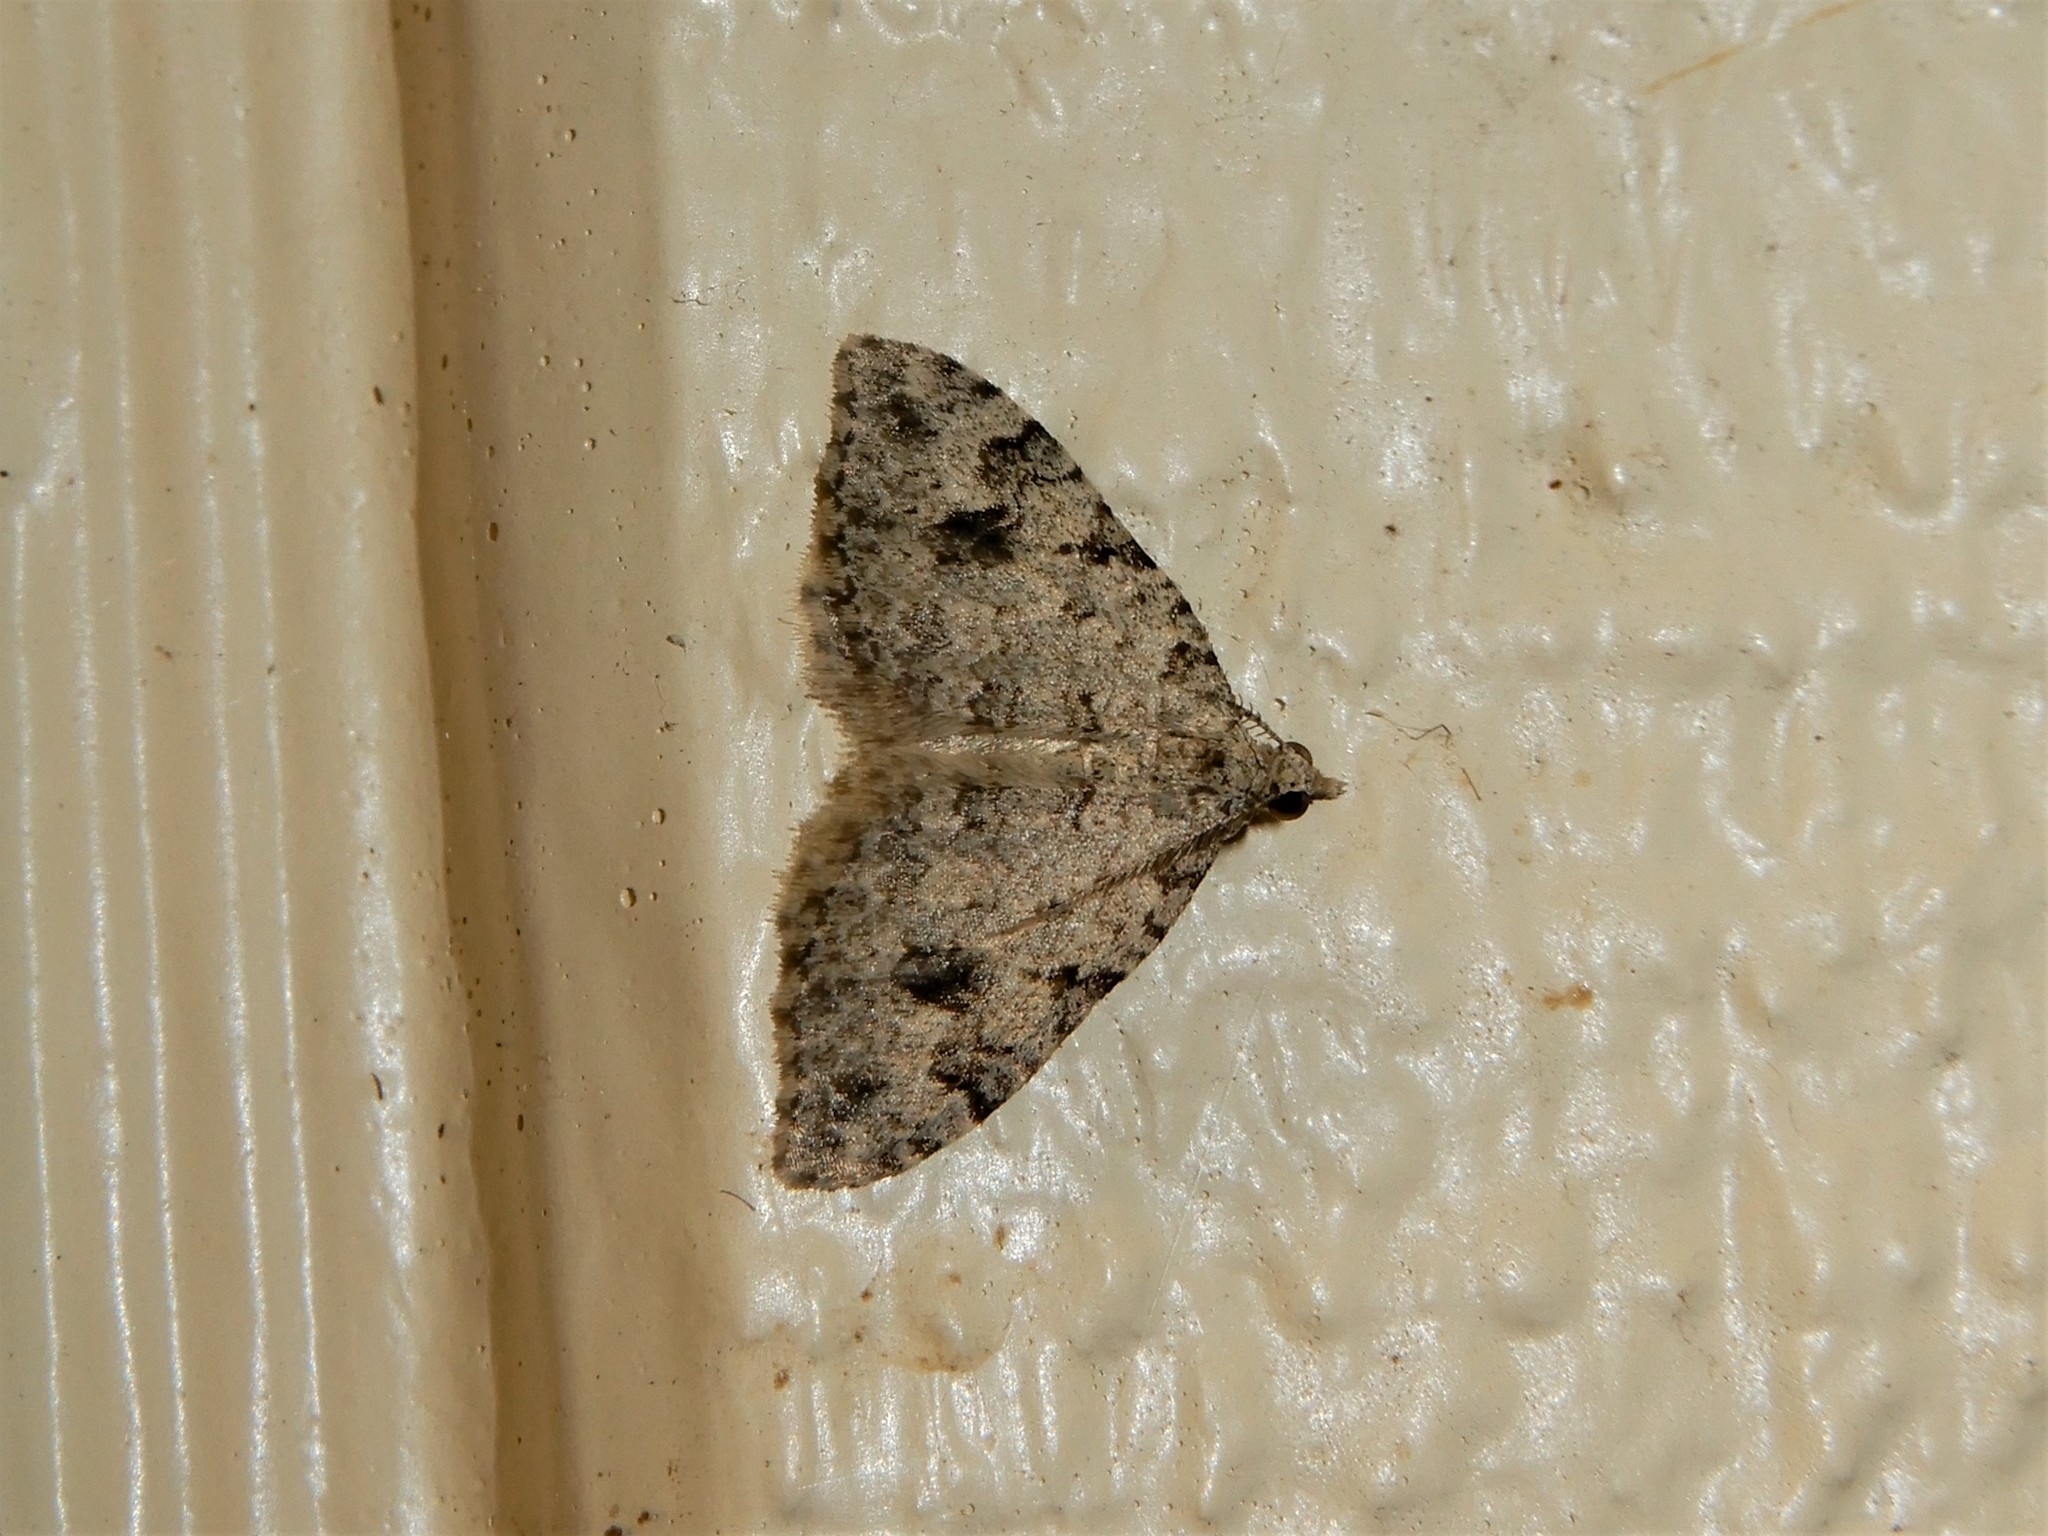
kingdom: Animalia
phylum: Arthropoda
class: Insecta
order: Lepidoptera
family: Geometridae
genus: Helastia
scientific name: Helastia cinerearia
